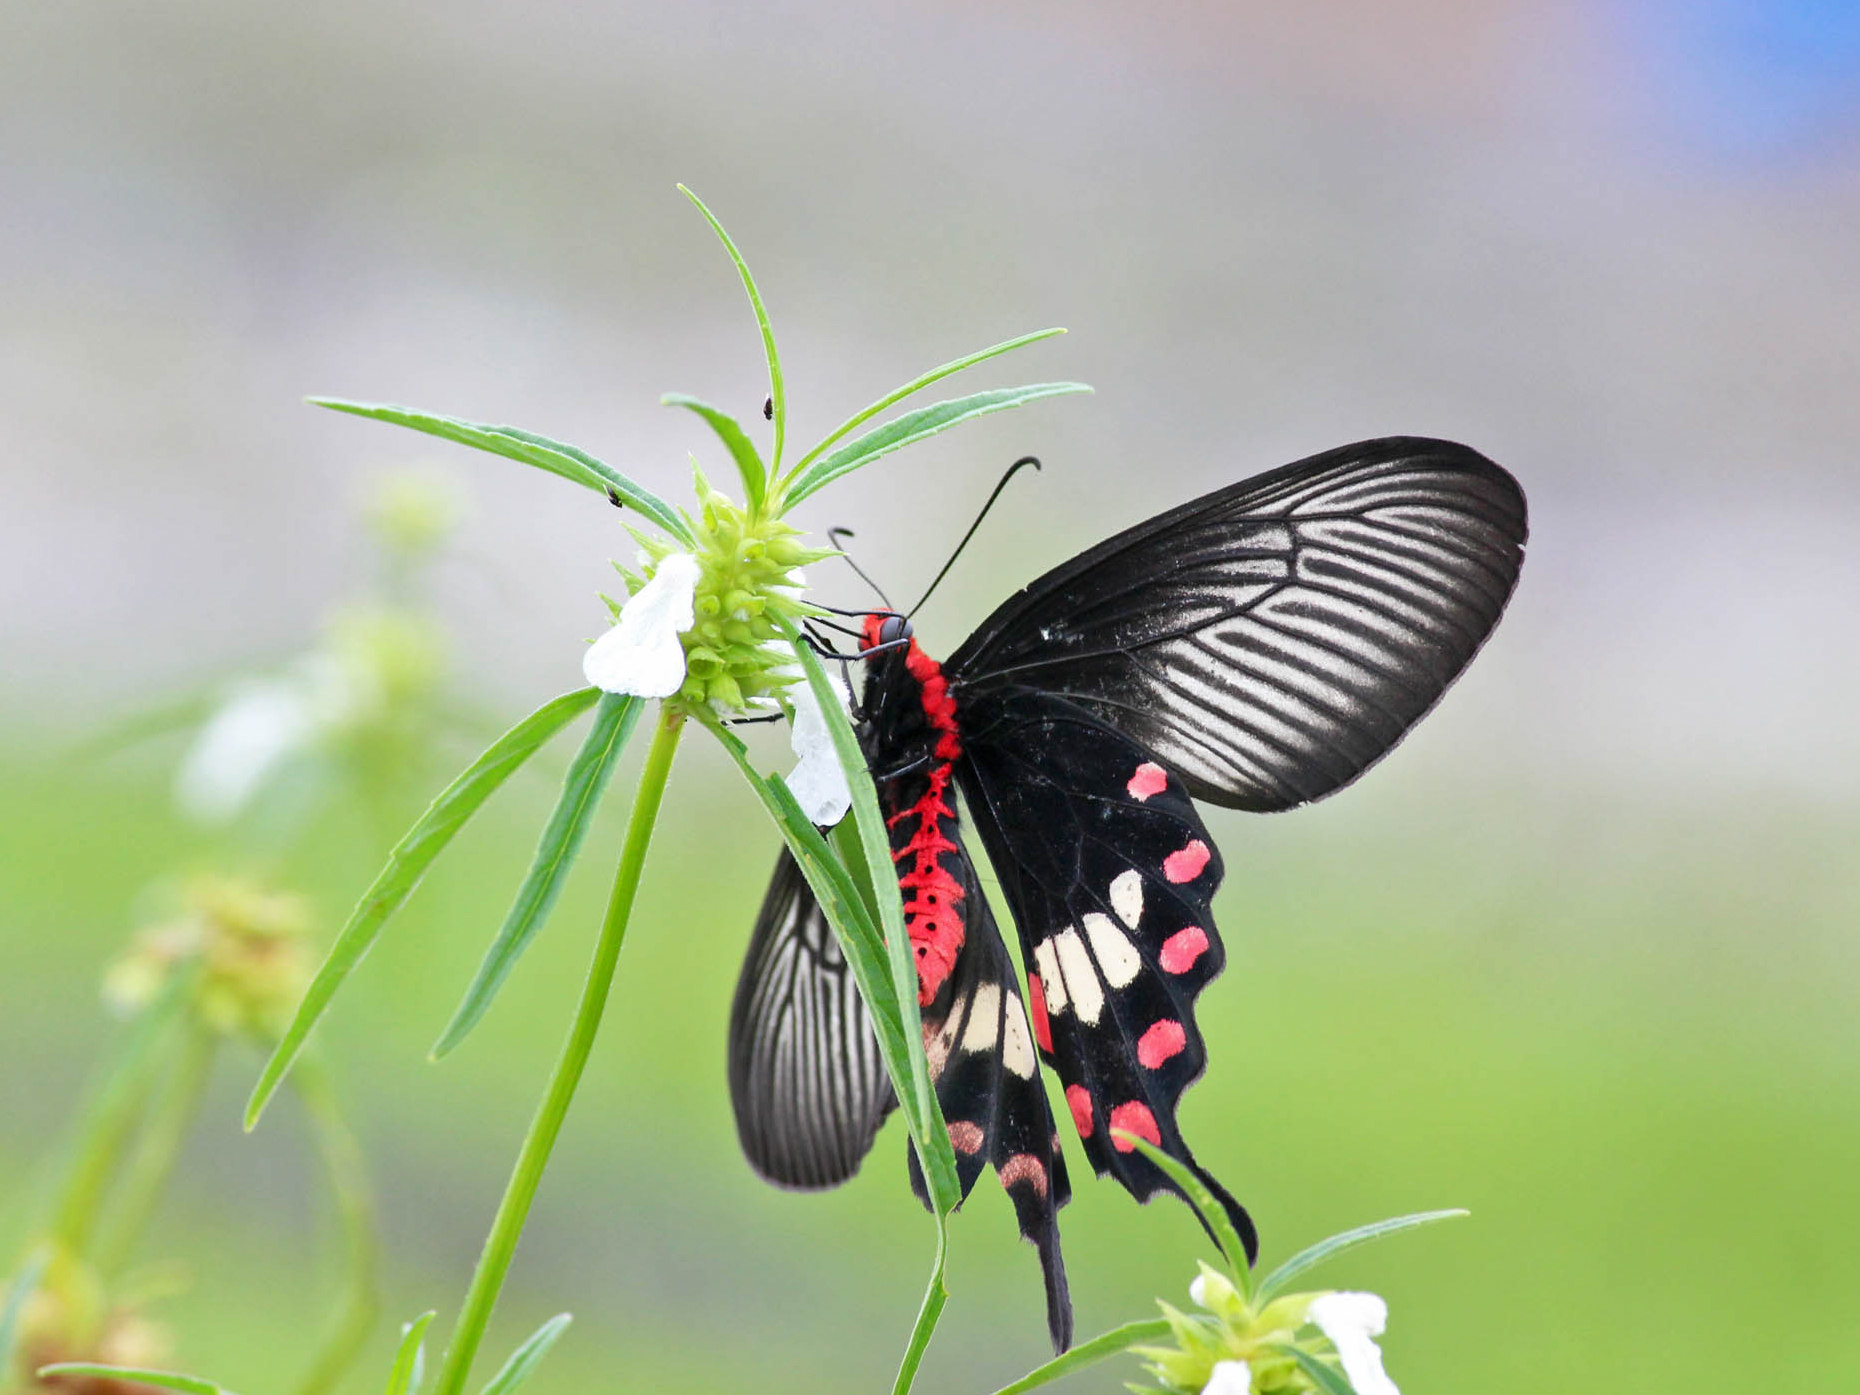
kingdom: Animalia
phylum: Arthropoda
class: Insecta
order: Lepidoptera
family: Papilionidae
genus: Pachliopta
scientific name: Pachliopta aristolochiae
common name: Common rose
